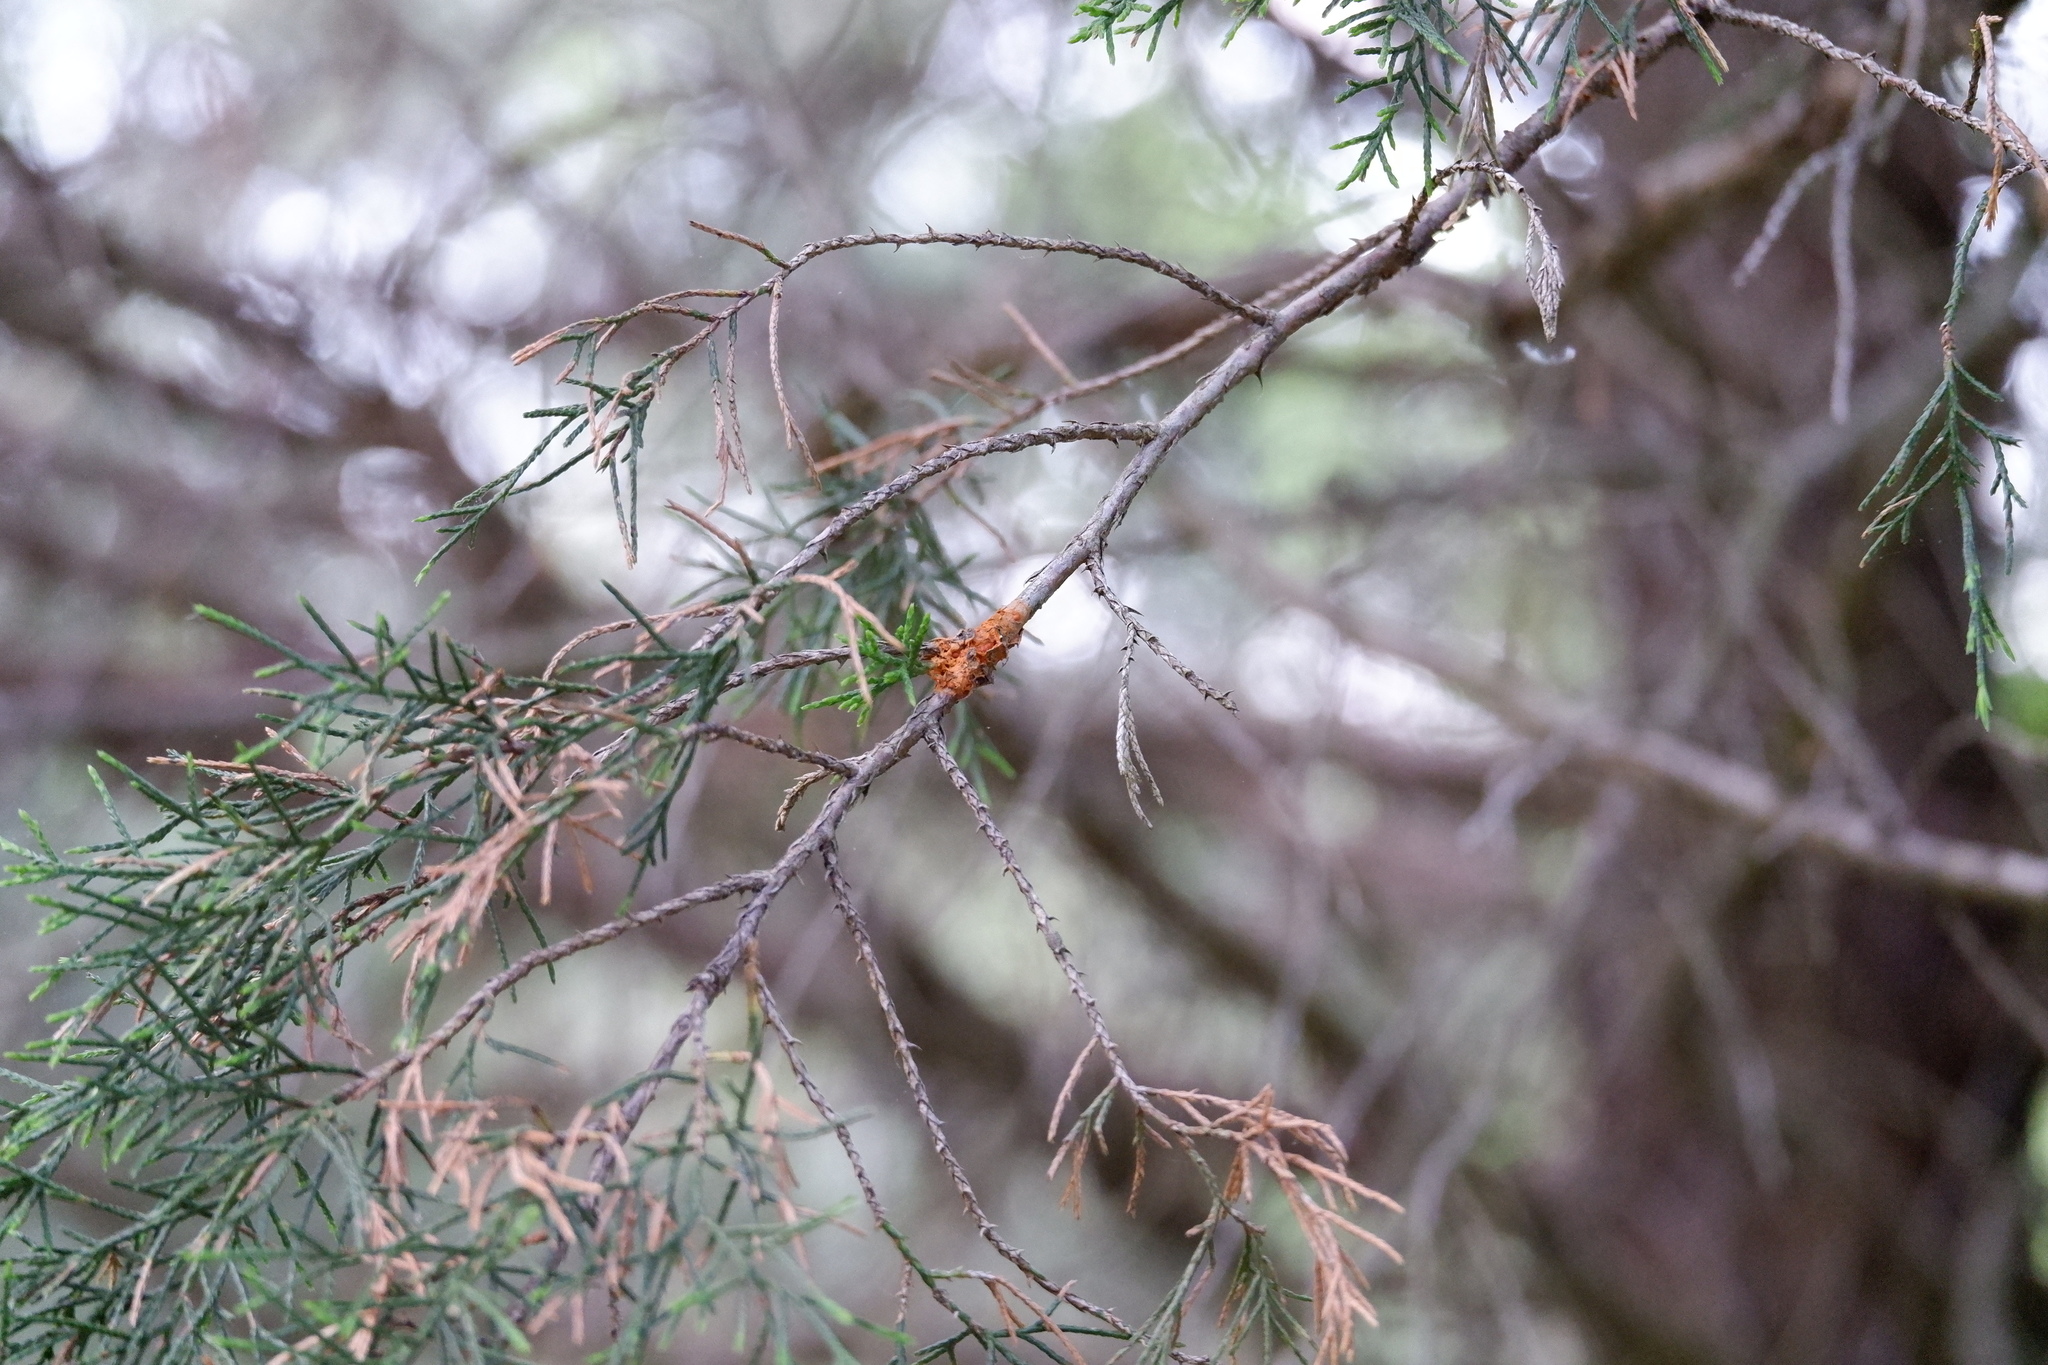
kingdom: Fungi
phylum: Basidiomycota
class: Pucciniomycetes
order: Pucciniales
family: Gymnosporangiaceae
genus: Gymnosporangium
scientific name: Gymnosporangium clavipes
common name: Quince rust
